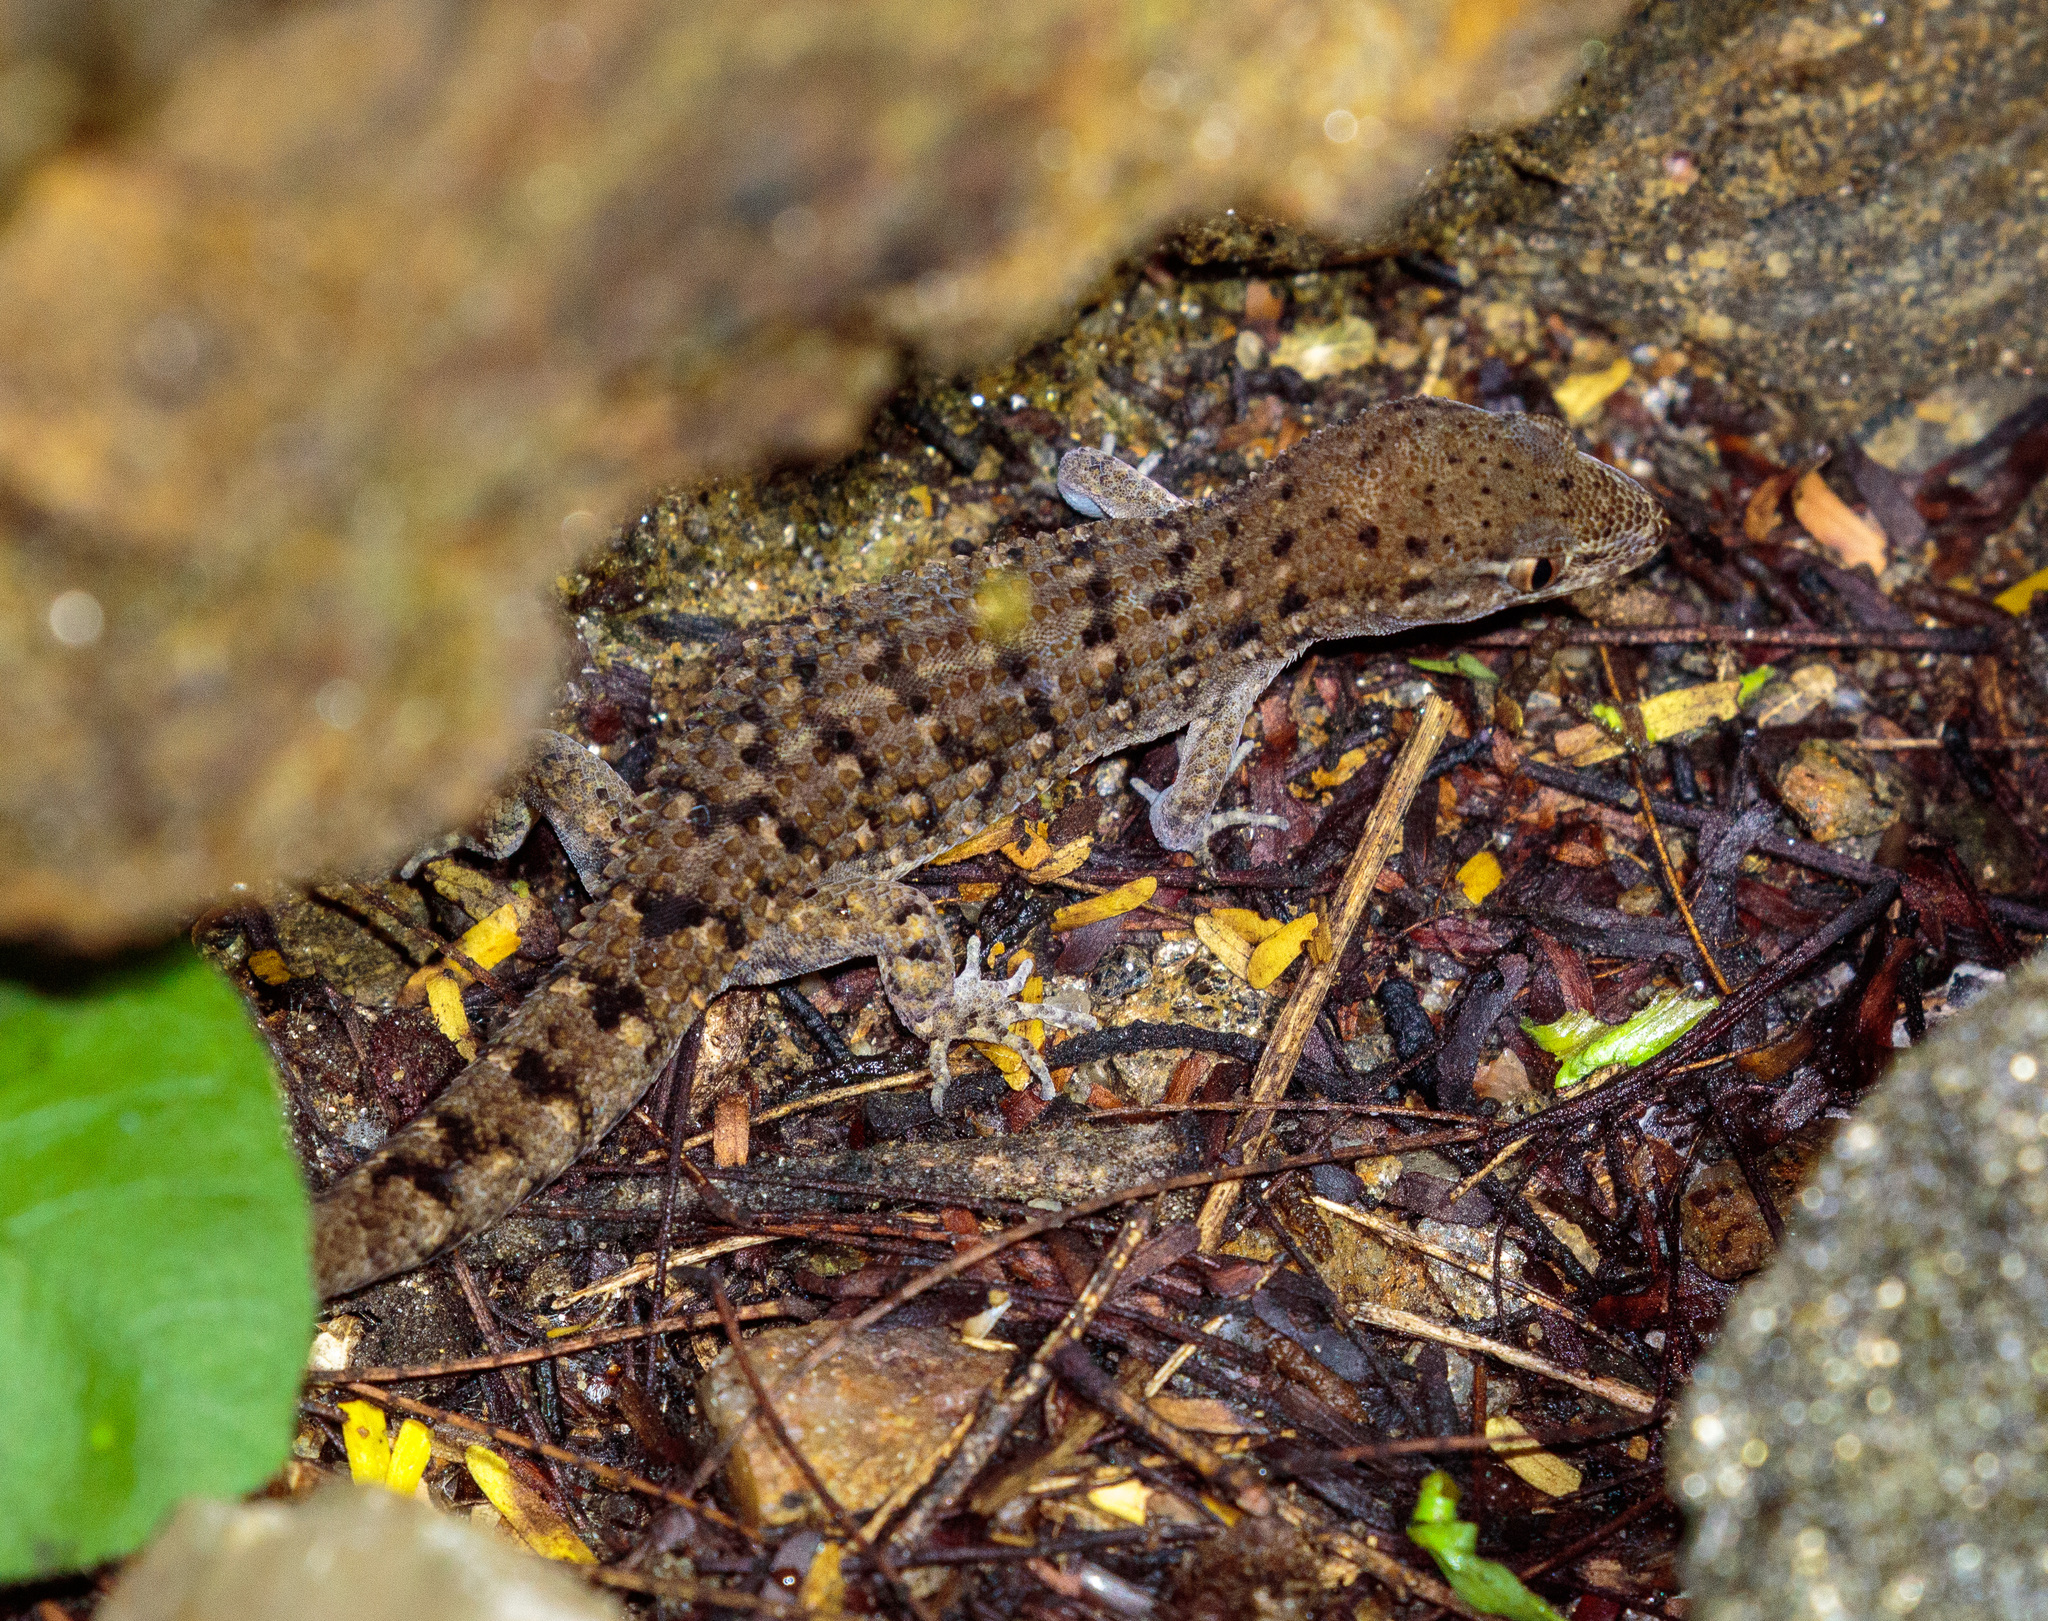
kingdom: Animalia
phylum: Chordata
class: Squamata
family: Phyllodactylidae
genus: Gymnodactylus
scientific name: Gymnodactylus geckoides
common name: Naked-toed gecko
